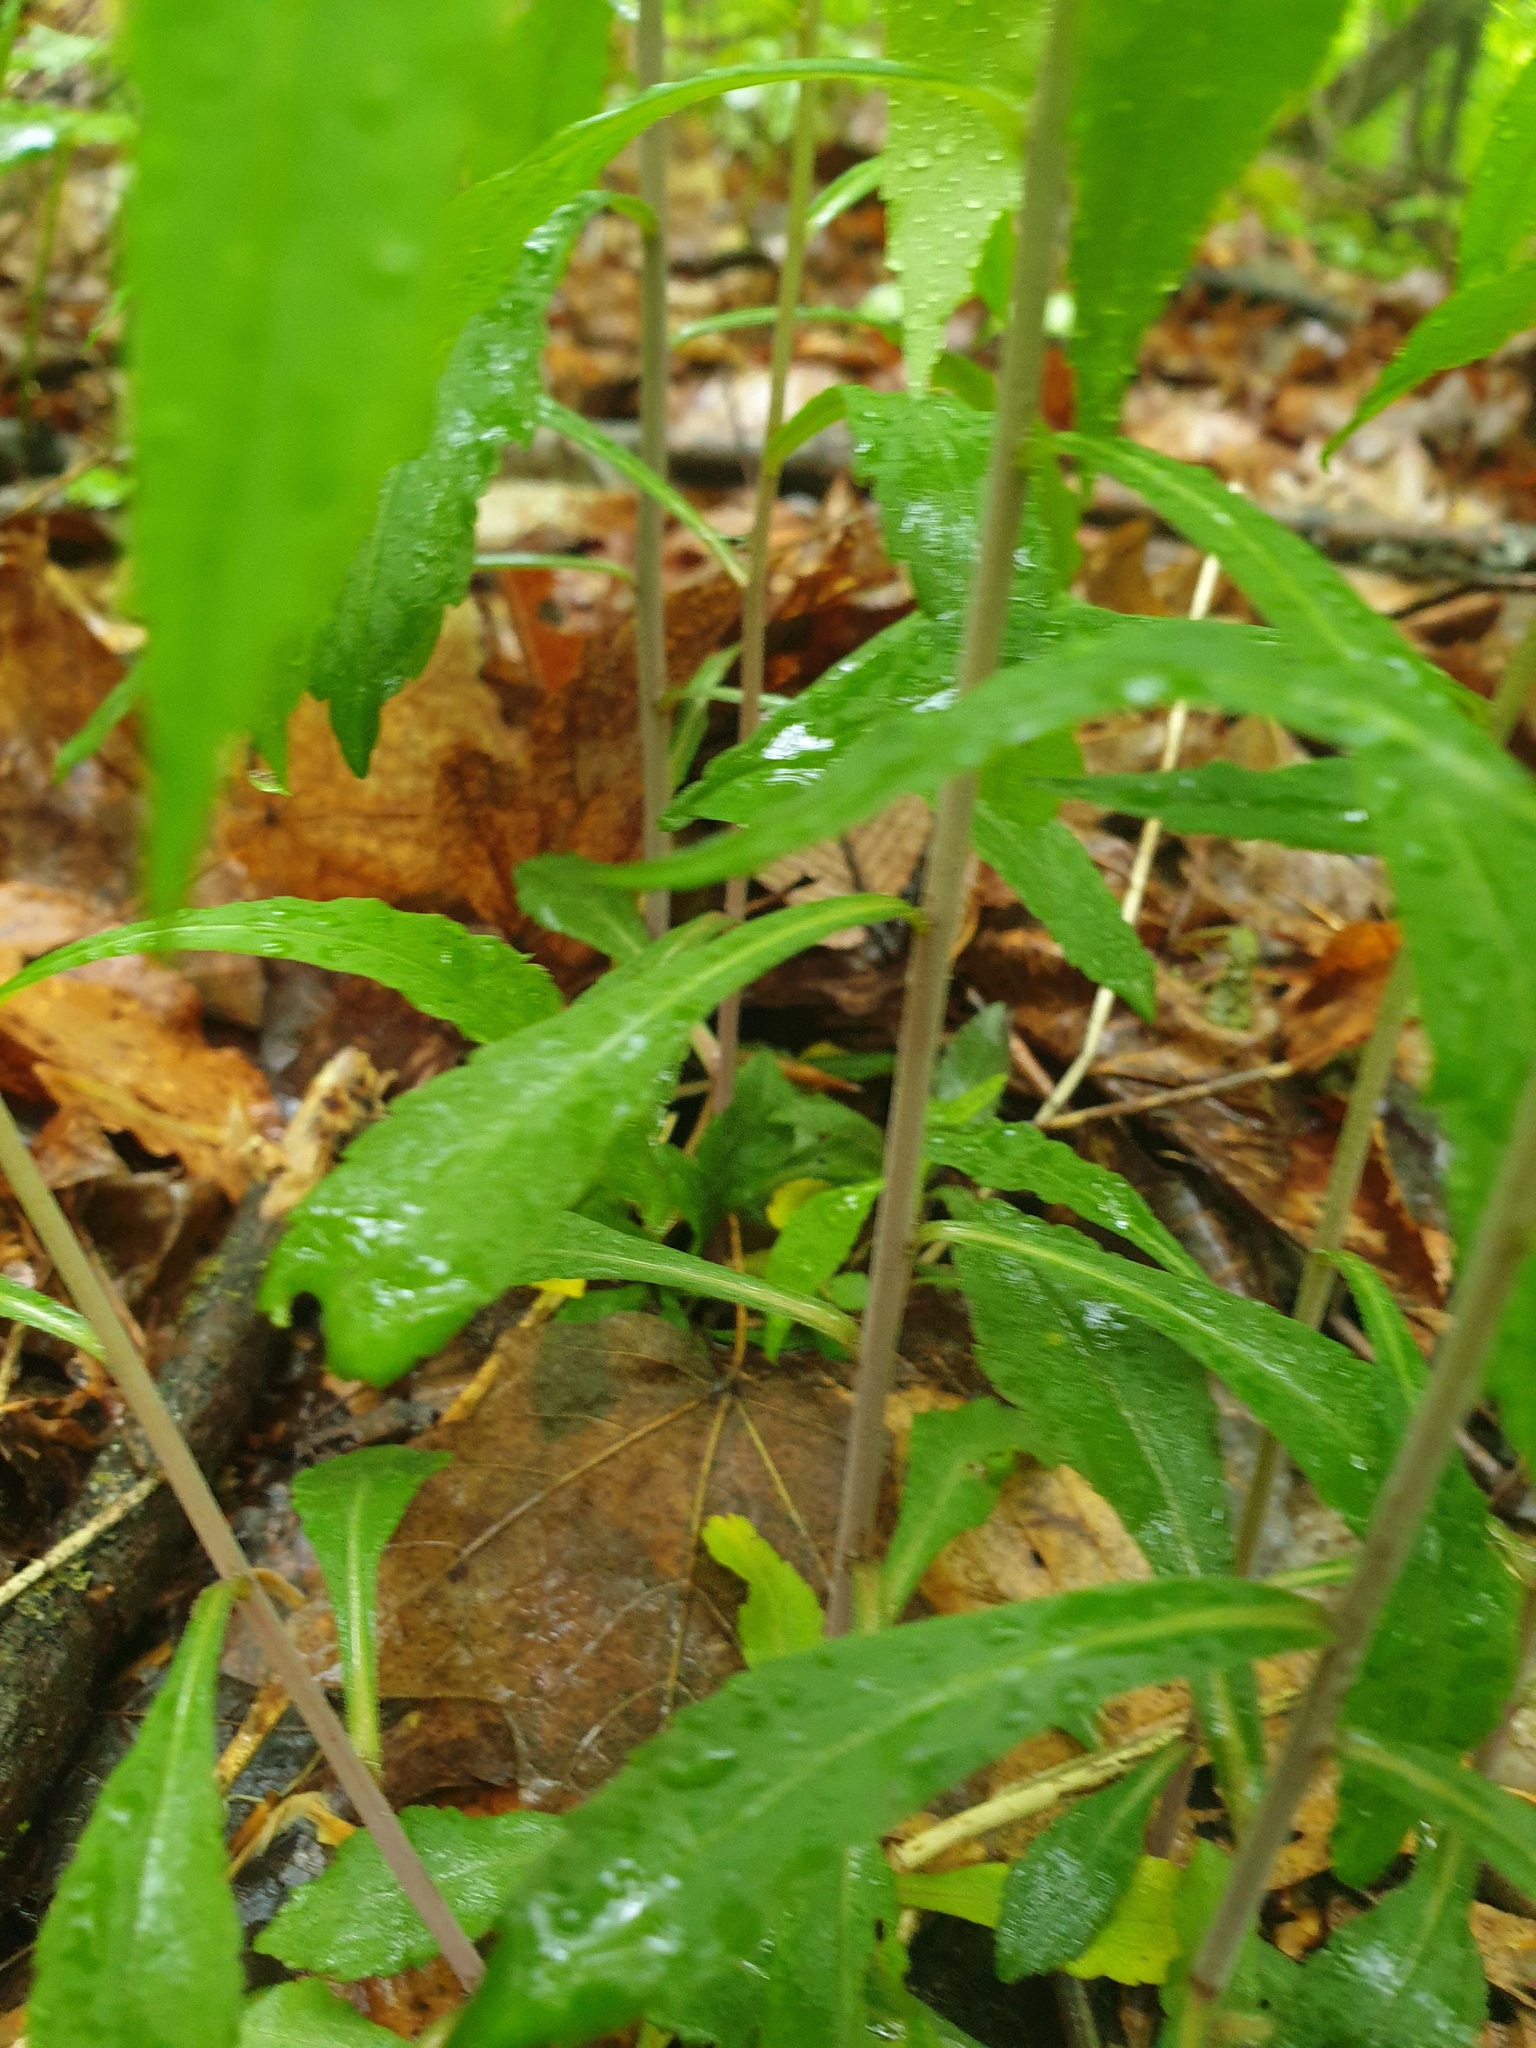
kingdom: Plantae
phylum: Tracheophyta
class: Magnoliopsida
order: Asterales
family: Asteraceae
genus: Solidago
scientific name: Solidago caesia
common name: Woodland goldenrod
